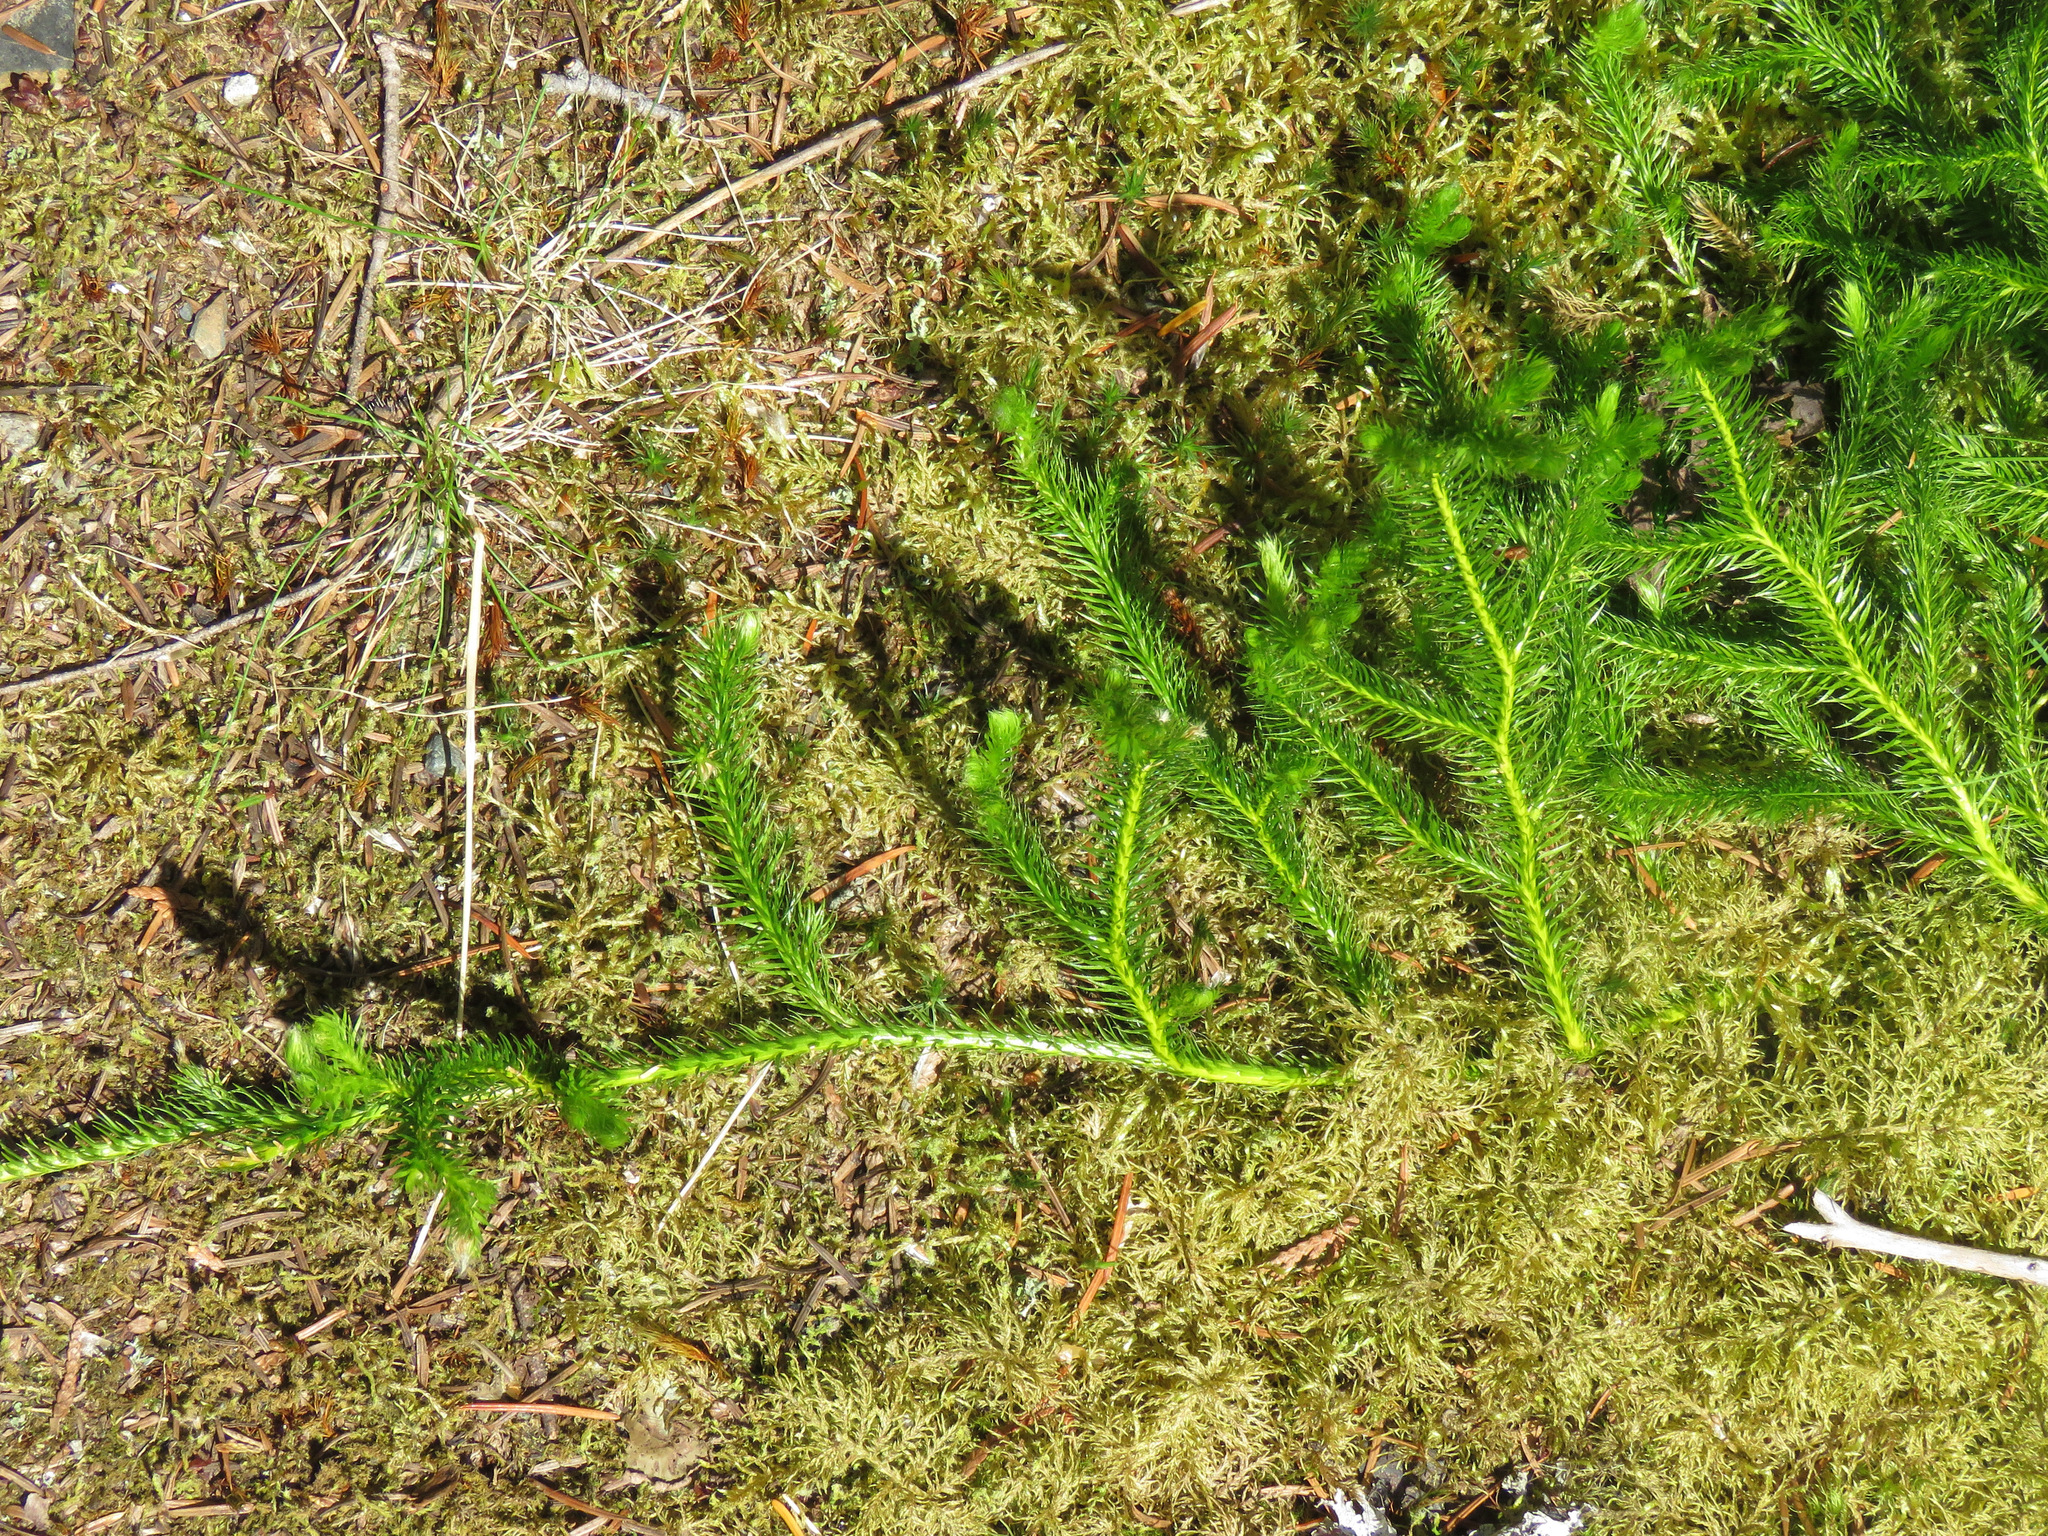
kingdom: Plantae
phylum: Tracheophyta
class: Lycopodiopsida
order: Lycopodiales
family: Lycopodiaceae
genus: Lycopodium
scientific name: Lycopodium clavatum
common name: Stag's-horn clubmoss
